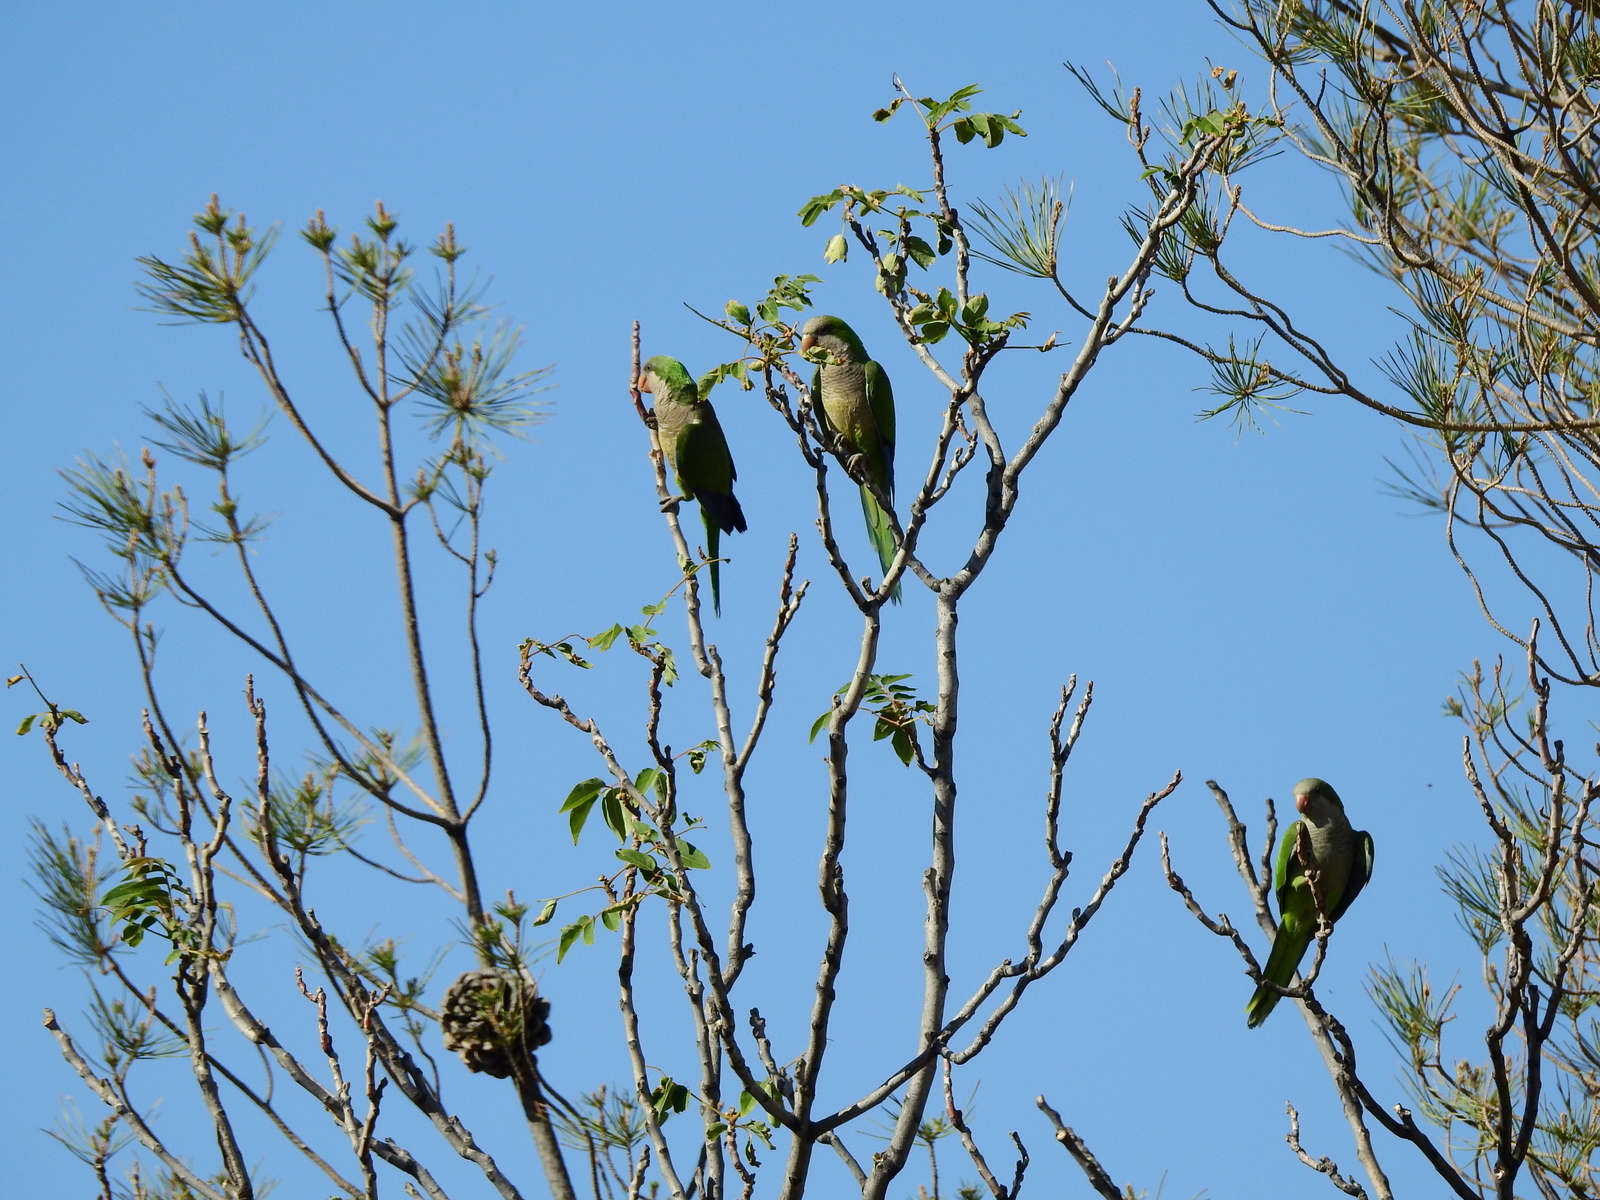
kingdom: Animalia
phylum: Chordata
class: Aves
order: Psittaciformes
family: Psittacidae
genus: Myiopsitta
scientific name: Myiopsitta monachus
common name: Monk parakeet
